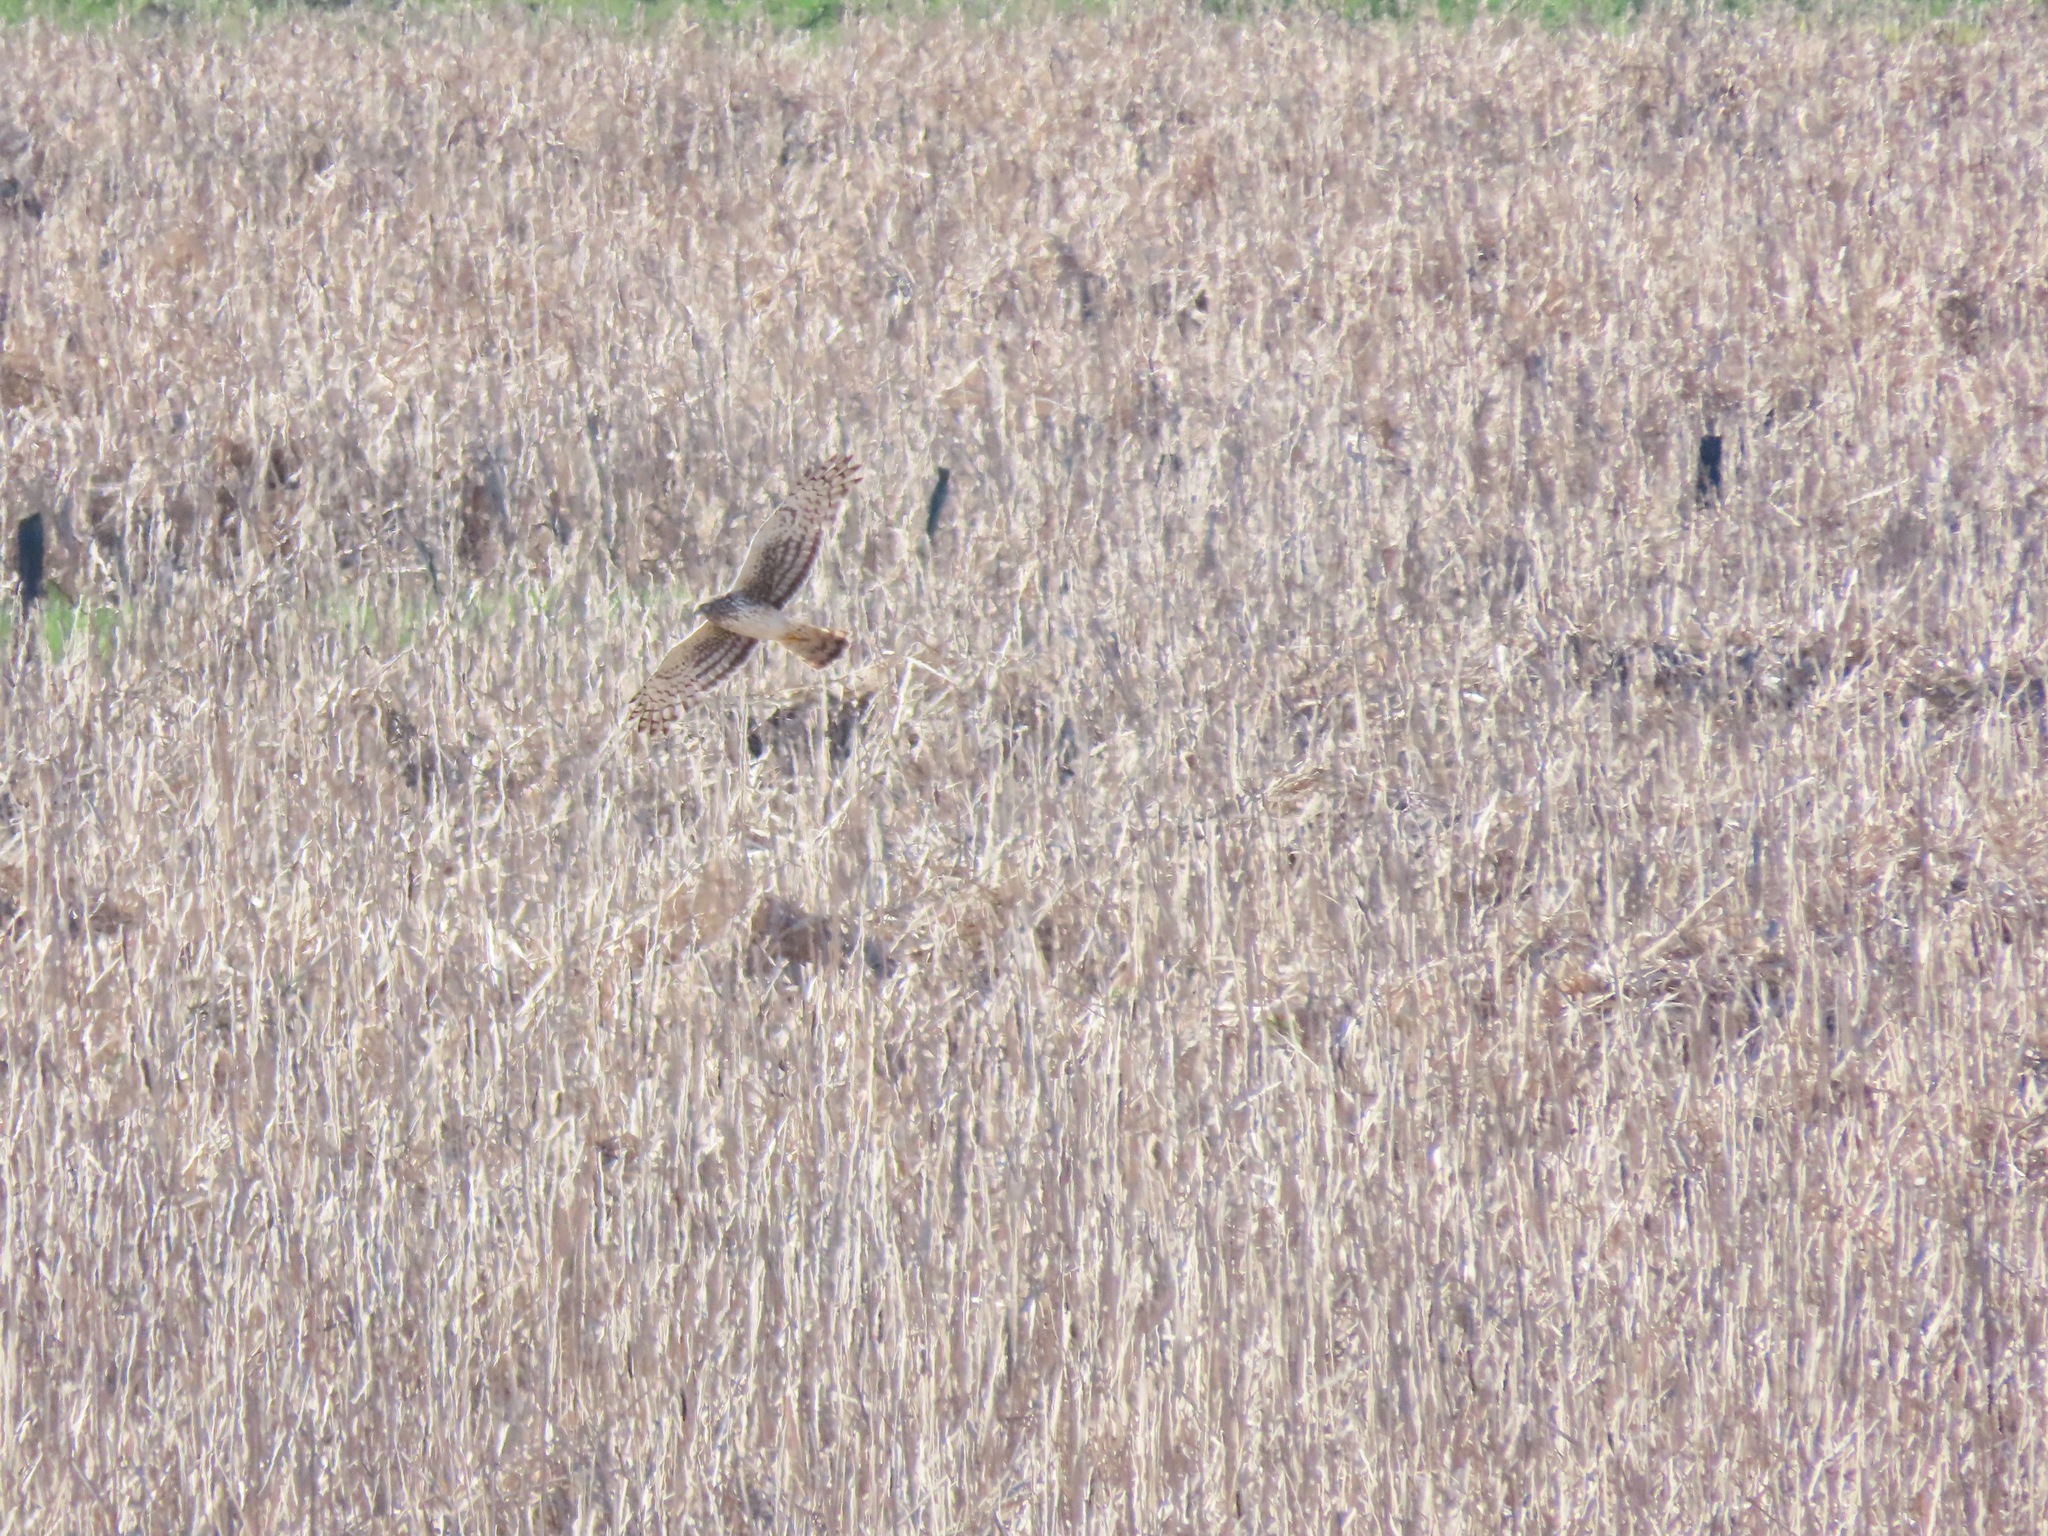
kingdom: Animalia
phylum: Chordata
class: Aves
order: Accipitriformes
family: Accipitridae
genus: Circus
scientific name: Circus cyaneus
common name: Hen harrier
